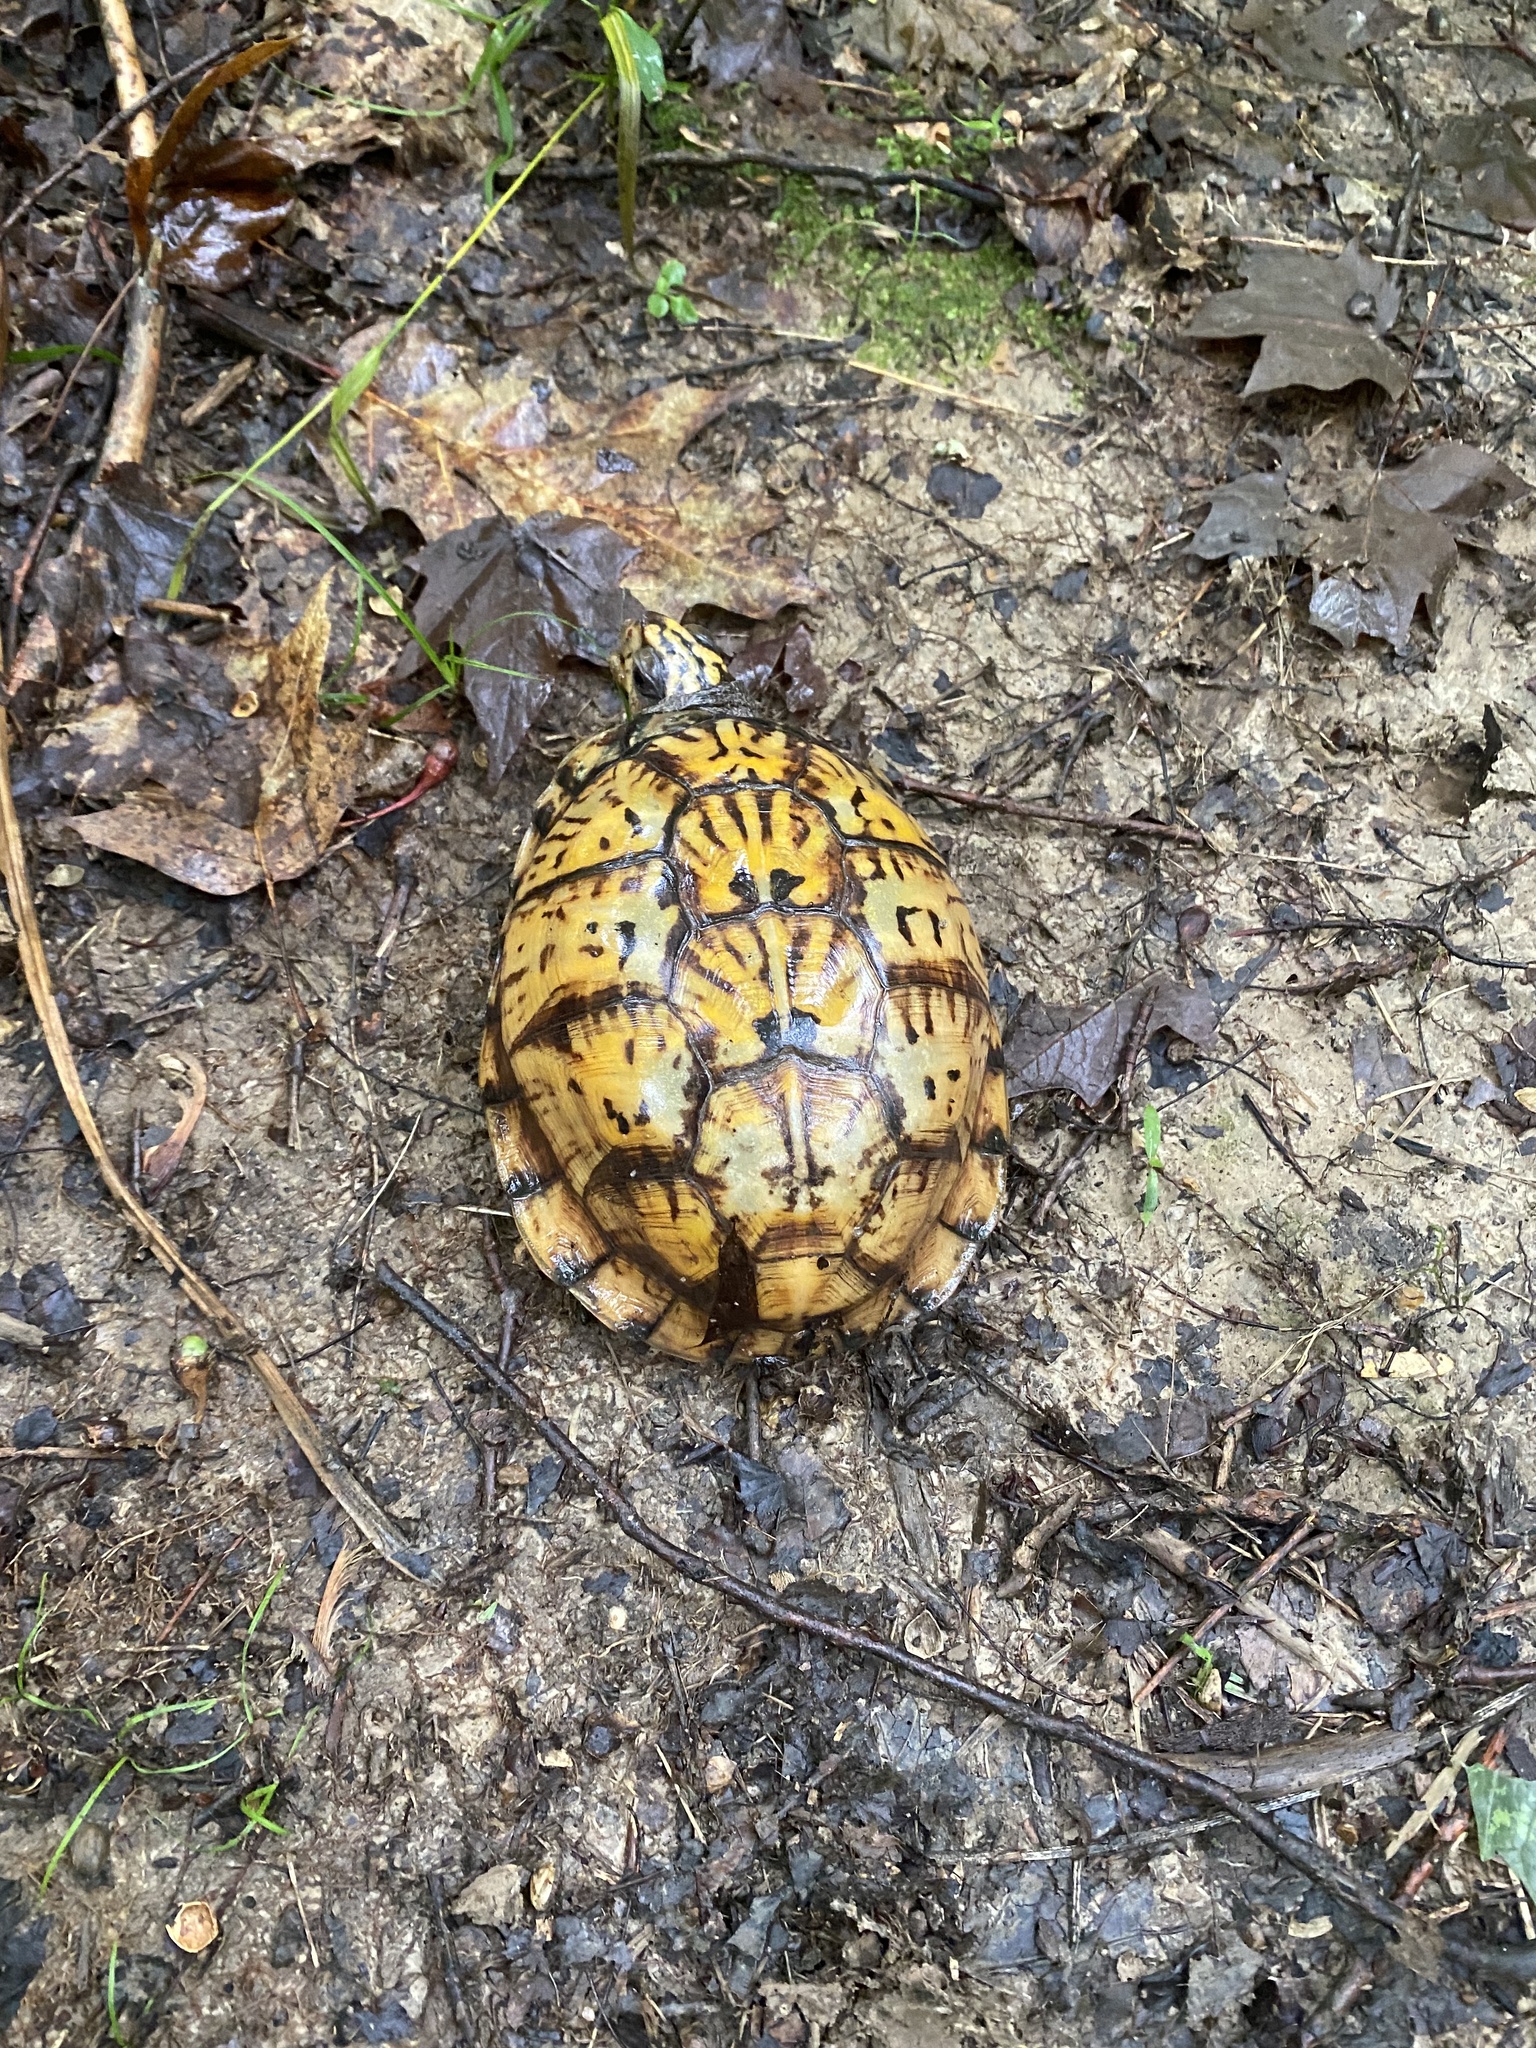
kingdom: Animalia
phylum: Chordata
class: Testudines
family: Emydidae
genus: Terrapene
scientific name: Terrapene carolina
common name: Common box turtle
